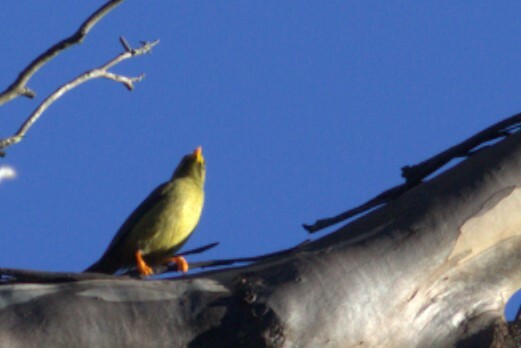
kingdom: Animalia
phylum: Chordata
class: Aves
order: Passeriformes
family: Meliphagidae
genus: Manorina
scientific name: Manorina melanophrys
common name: Bell miner
